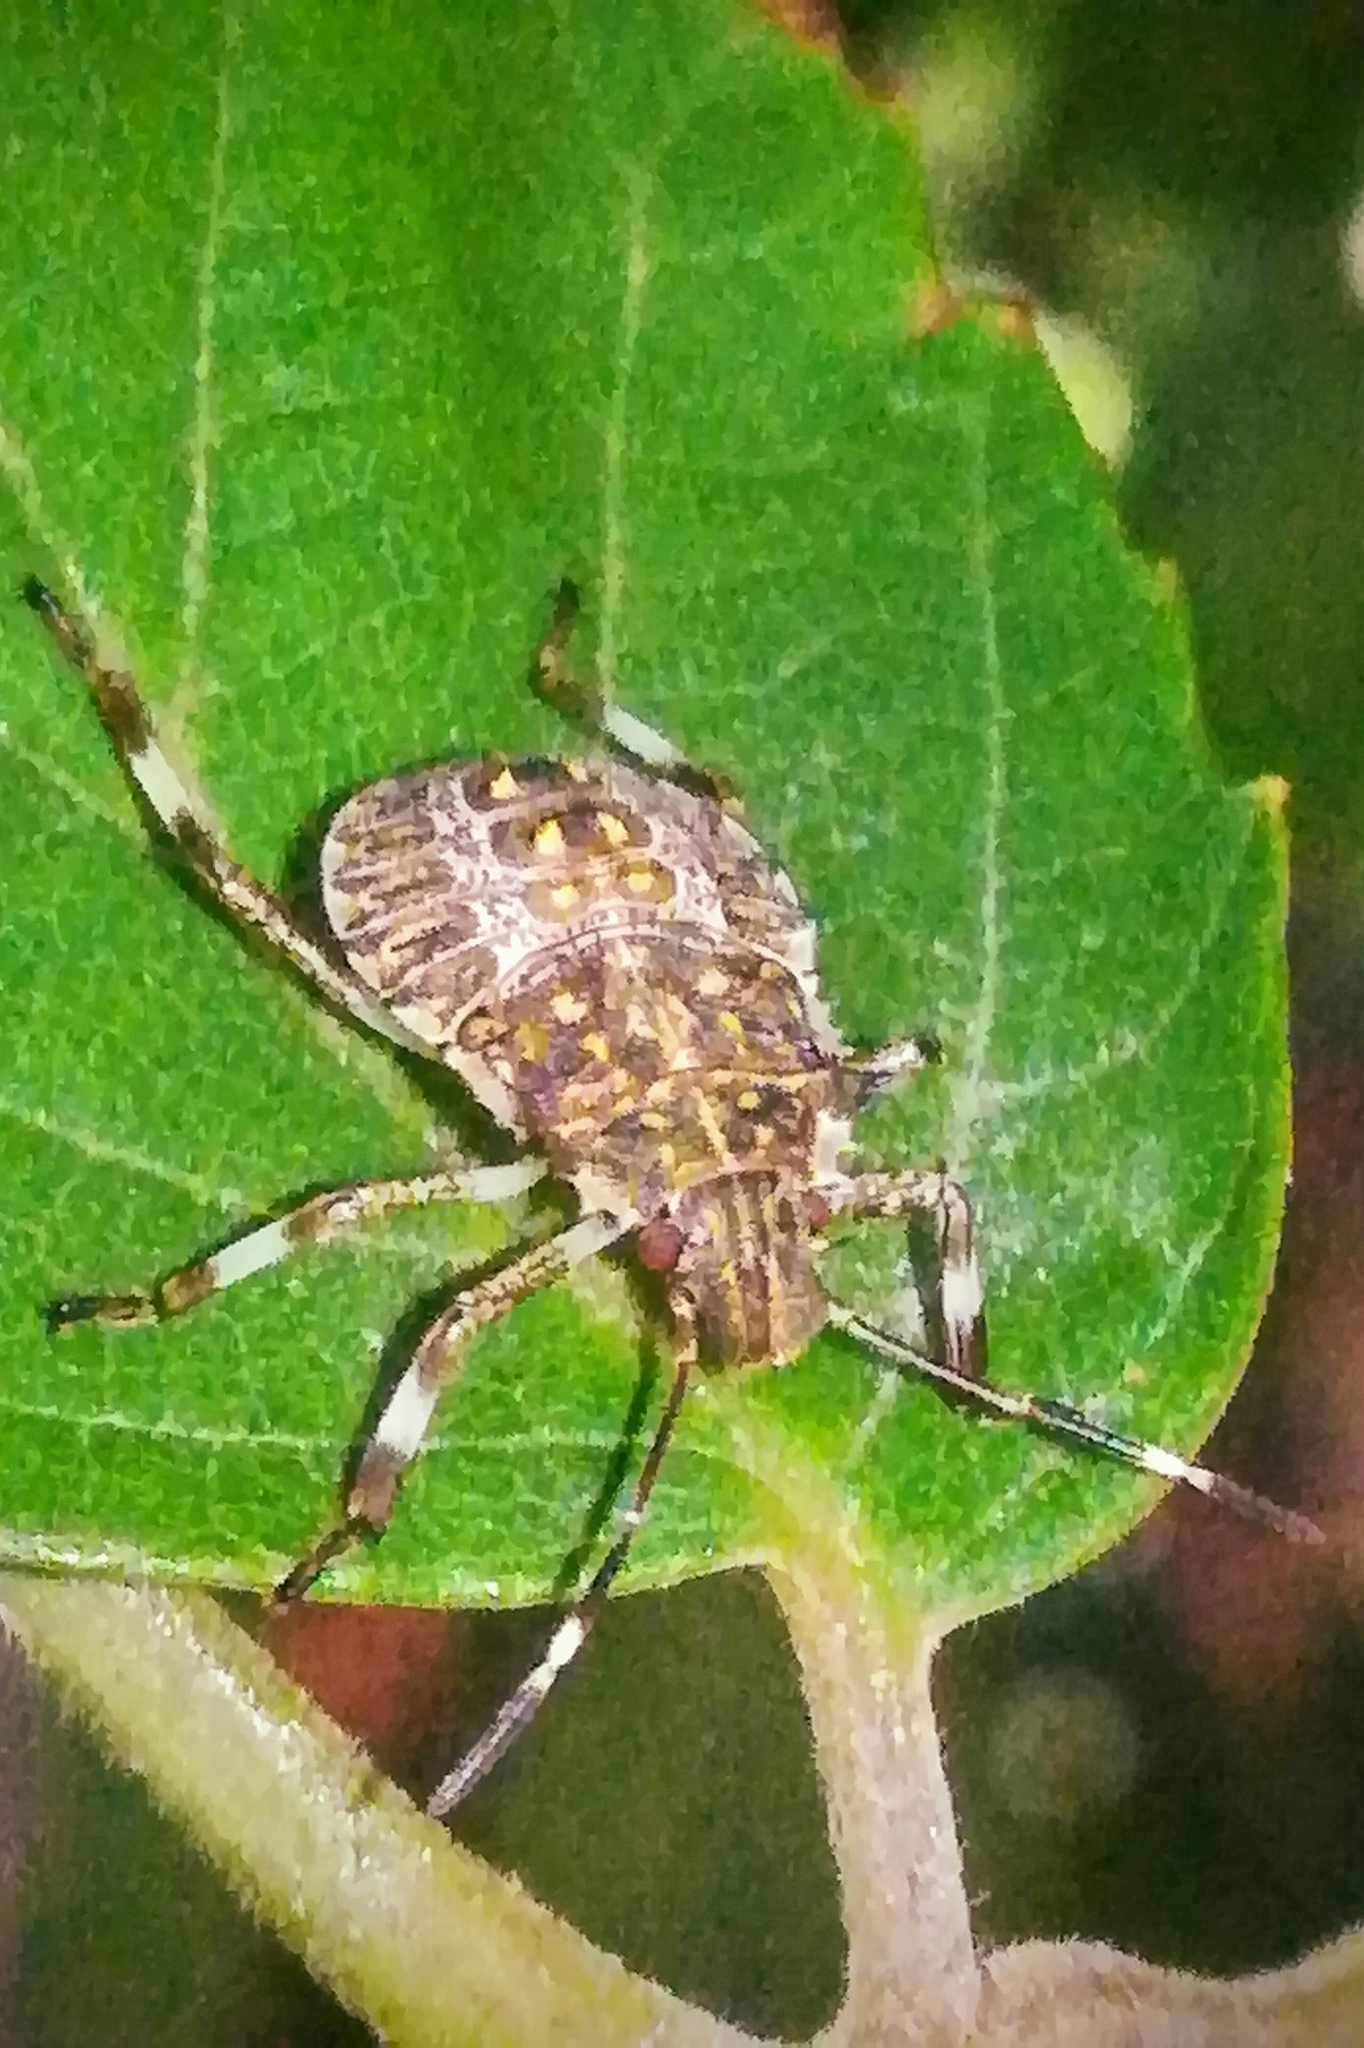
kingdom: Animalia
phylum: Arthropoda
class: Insecta
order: Hemiptera
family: Pentatomidae
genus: Halyomorpha
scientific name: Halyomorpha halys
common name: Brown marmorated stink bug
